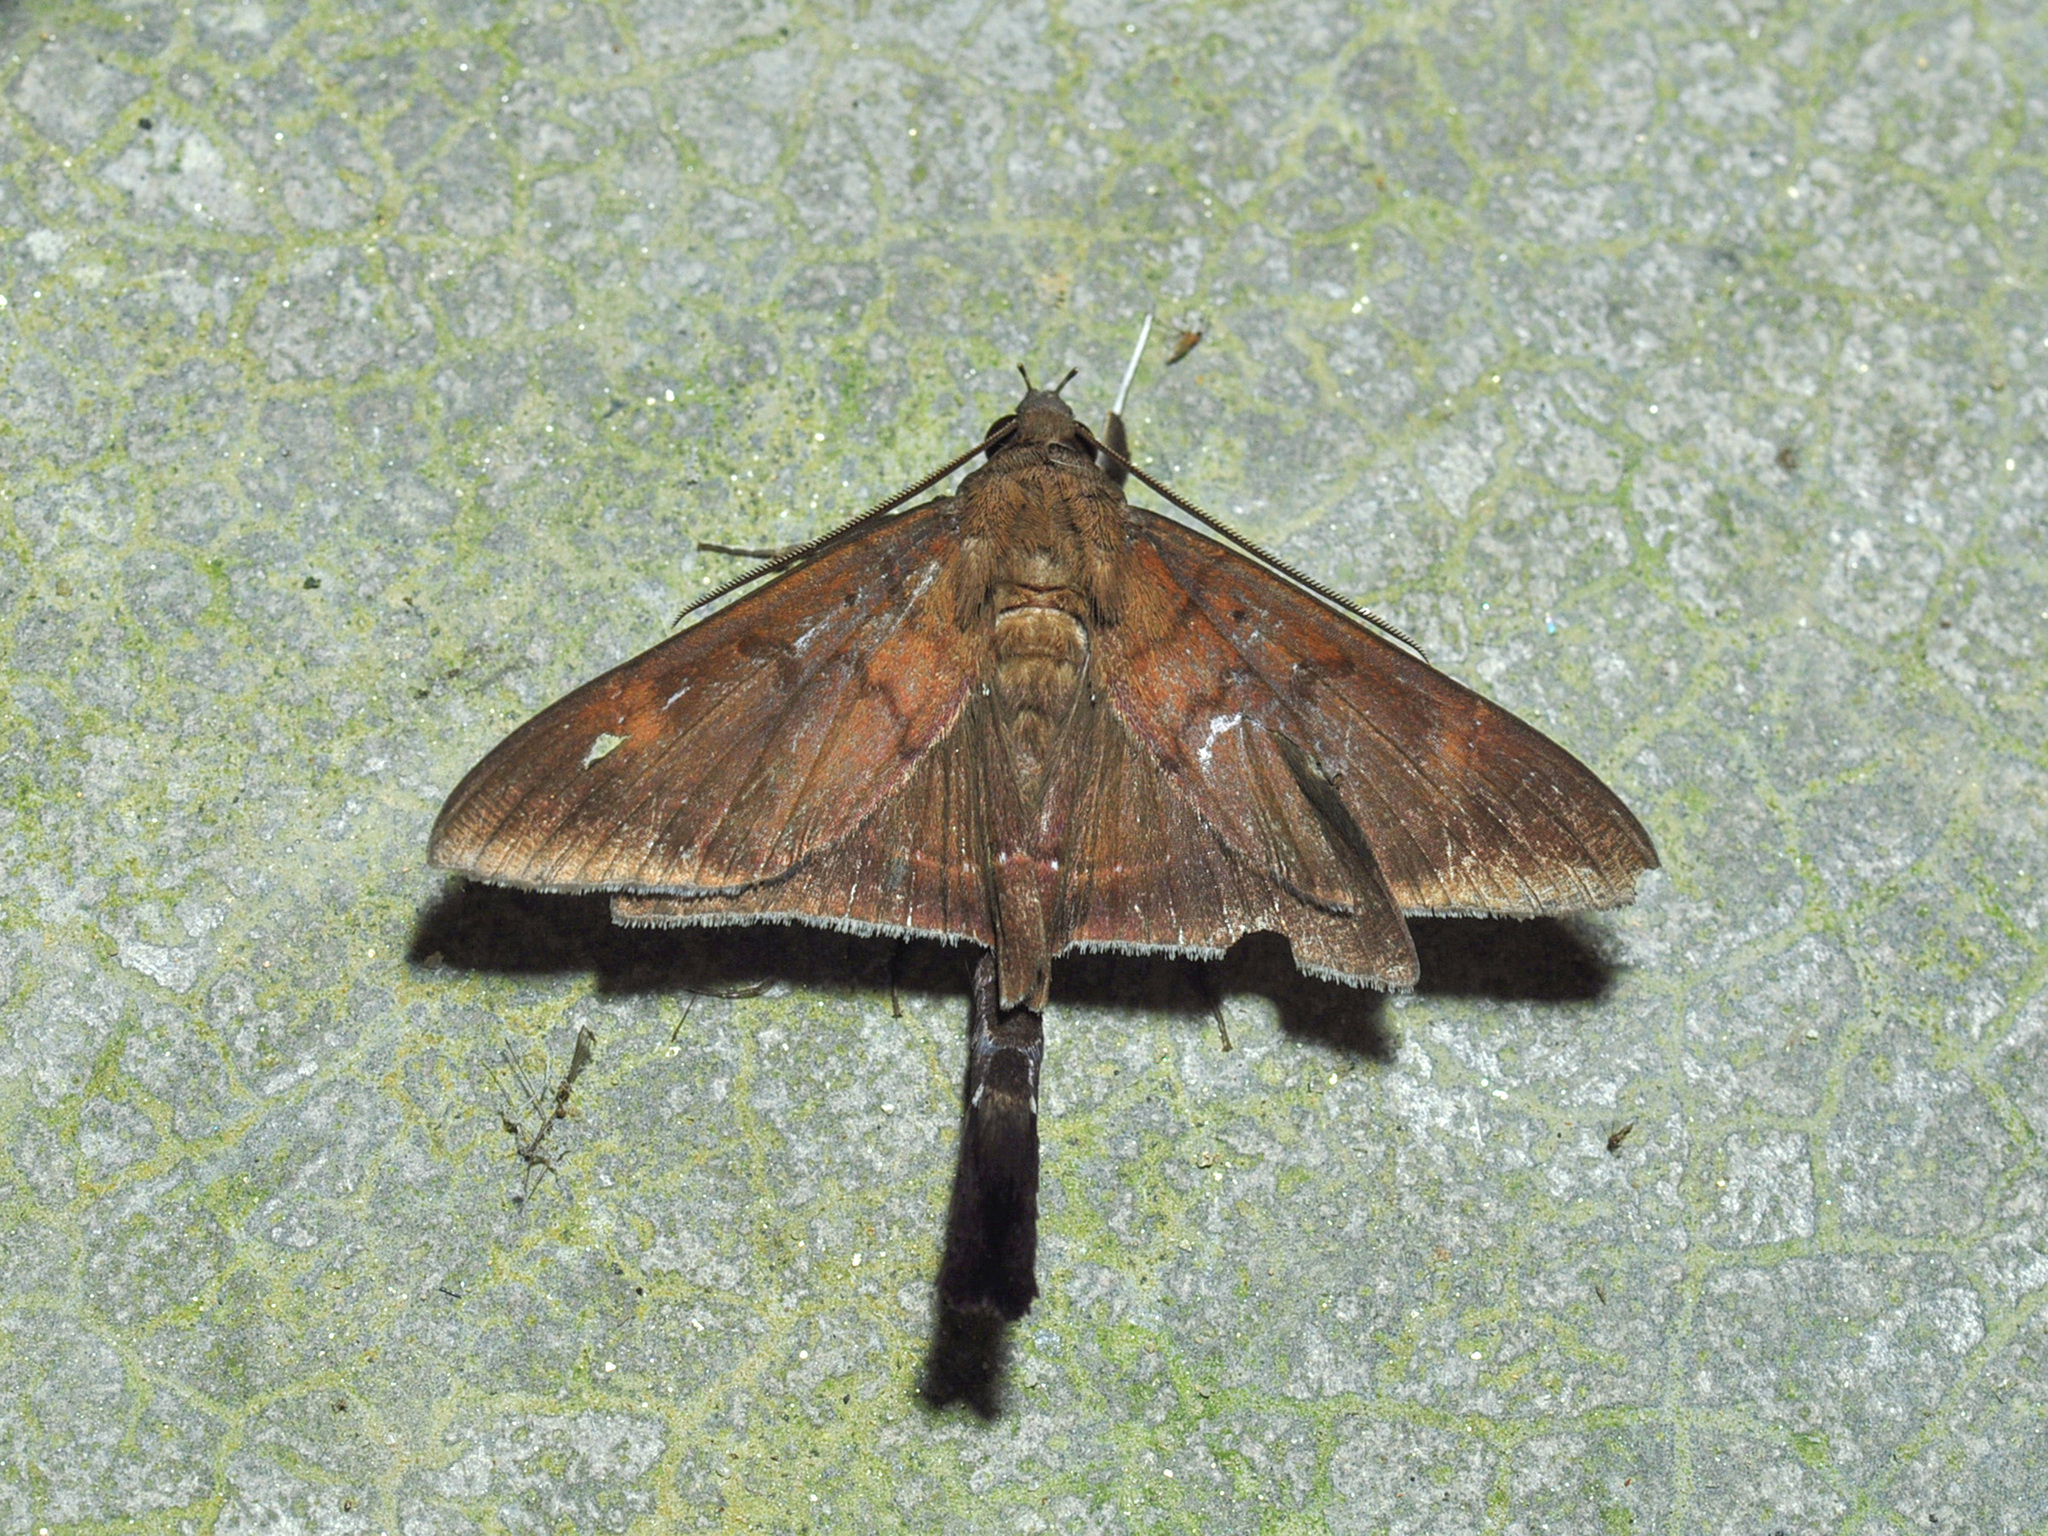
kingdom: Animalia
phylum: Arthropoda
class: Insecta
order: Lepidoptera
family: Erebidae
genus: Platyja
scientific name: Platyja umbrina
